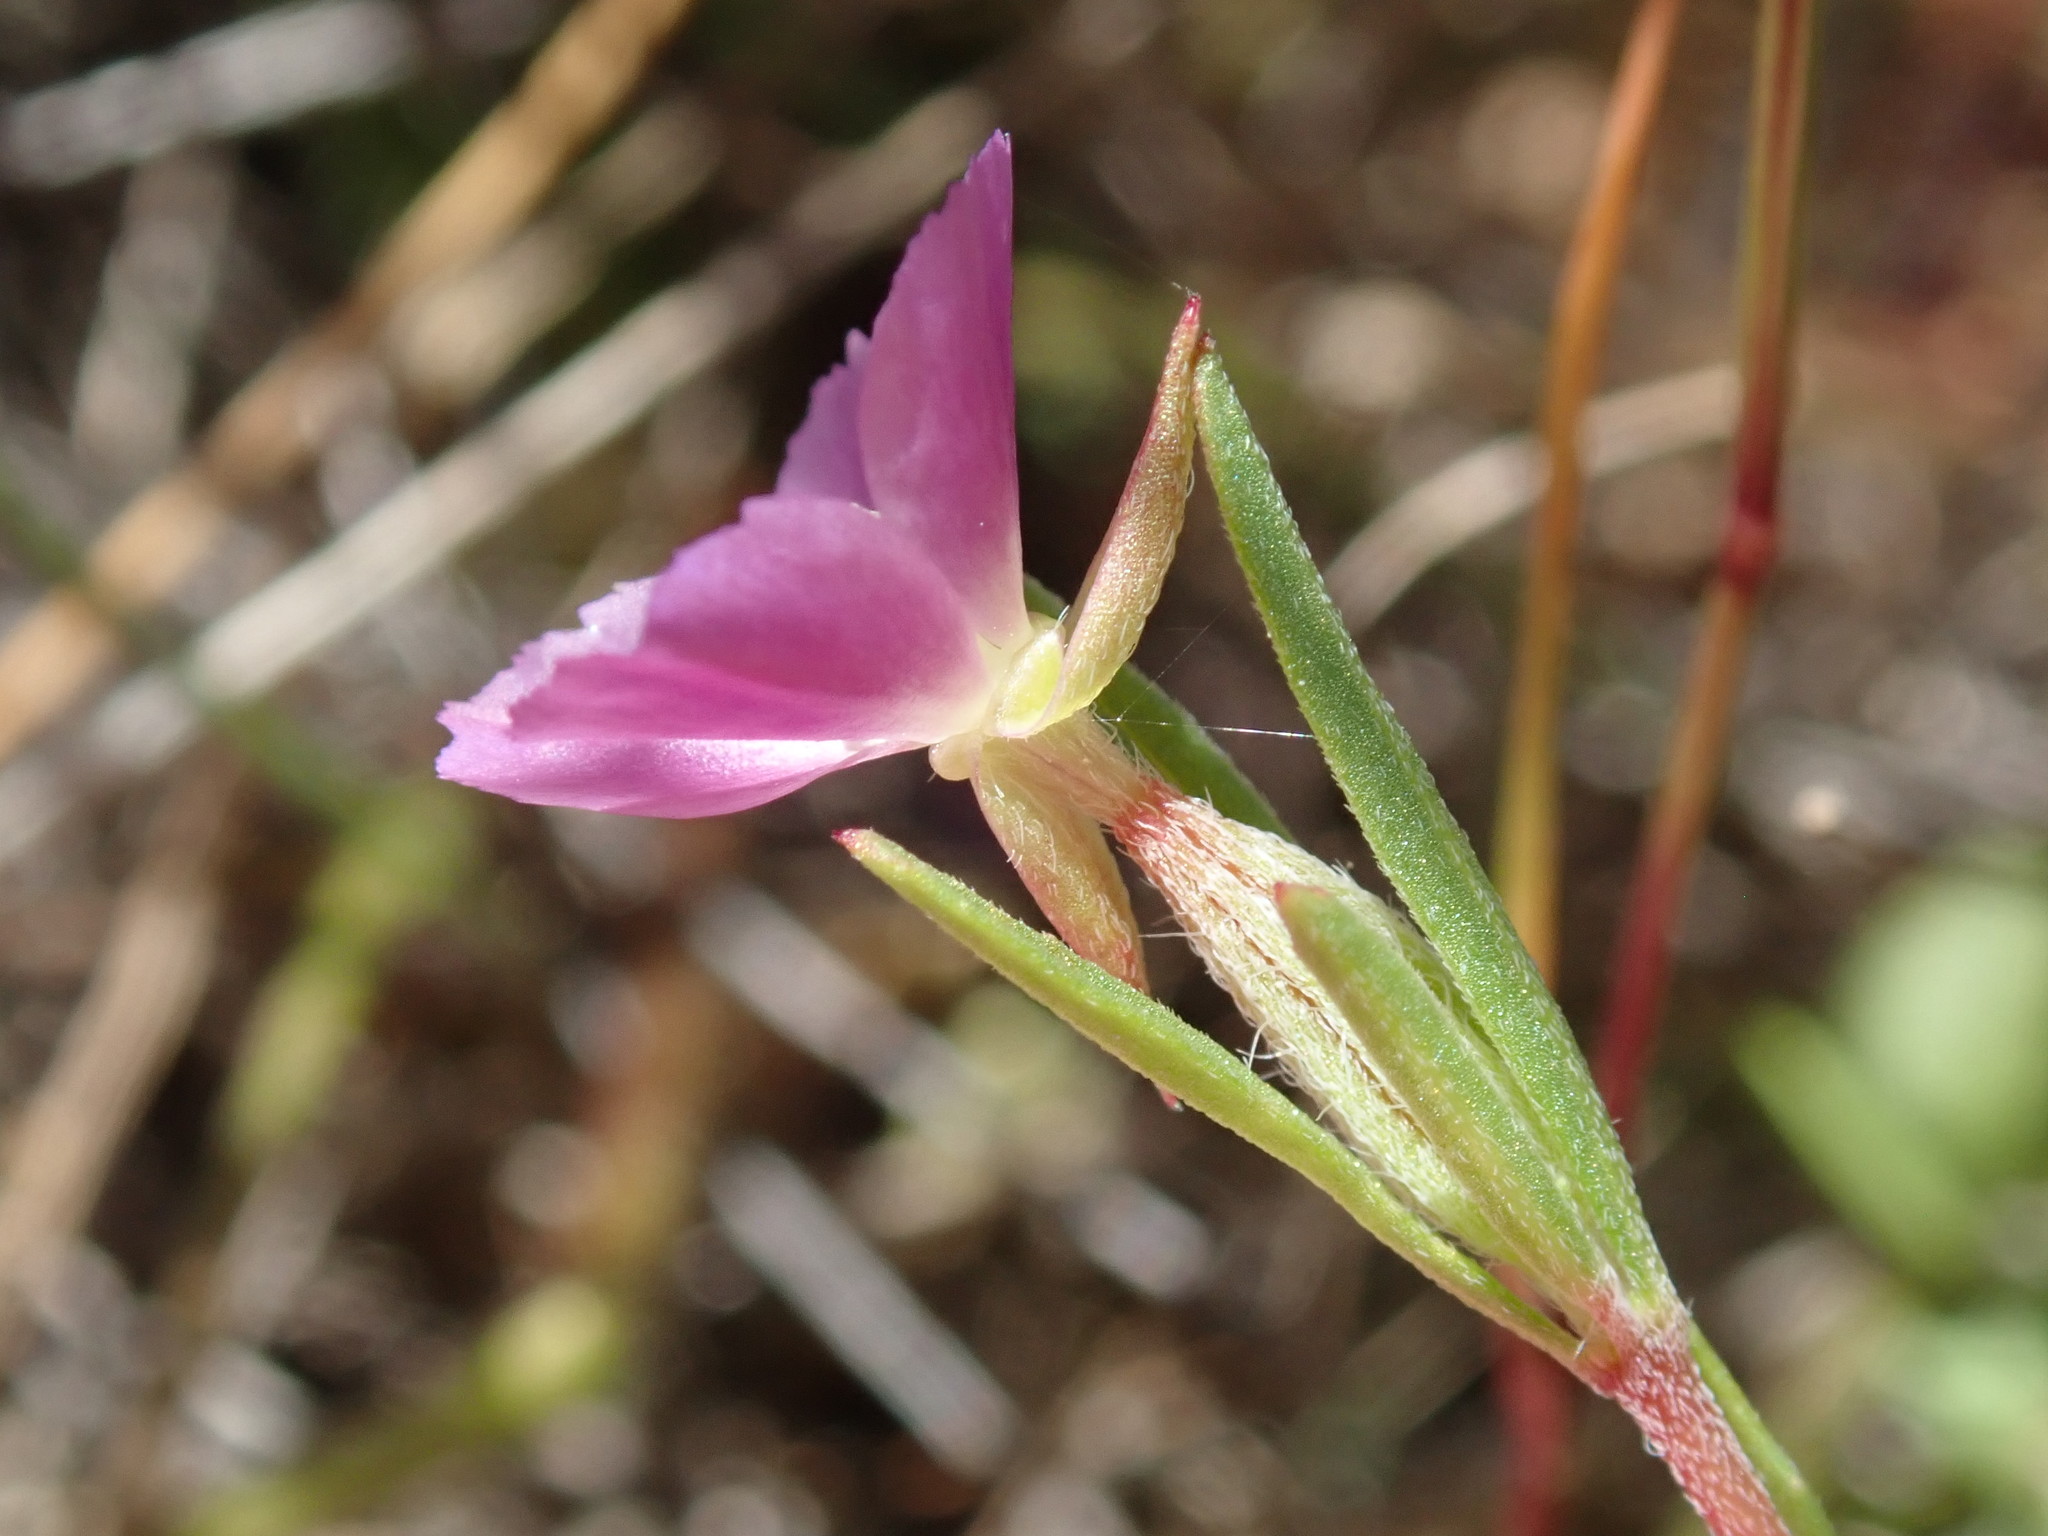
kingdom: Plantae
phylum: Tracheophyta
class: Magnoliopsida
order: Myrtales
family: Onagraceae
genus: Clarkia
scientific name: Clarkia purpurea
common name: Purple clarkia
